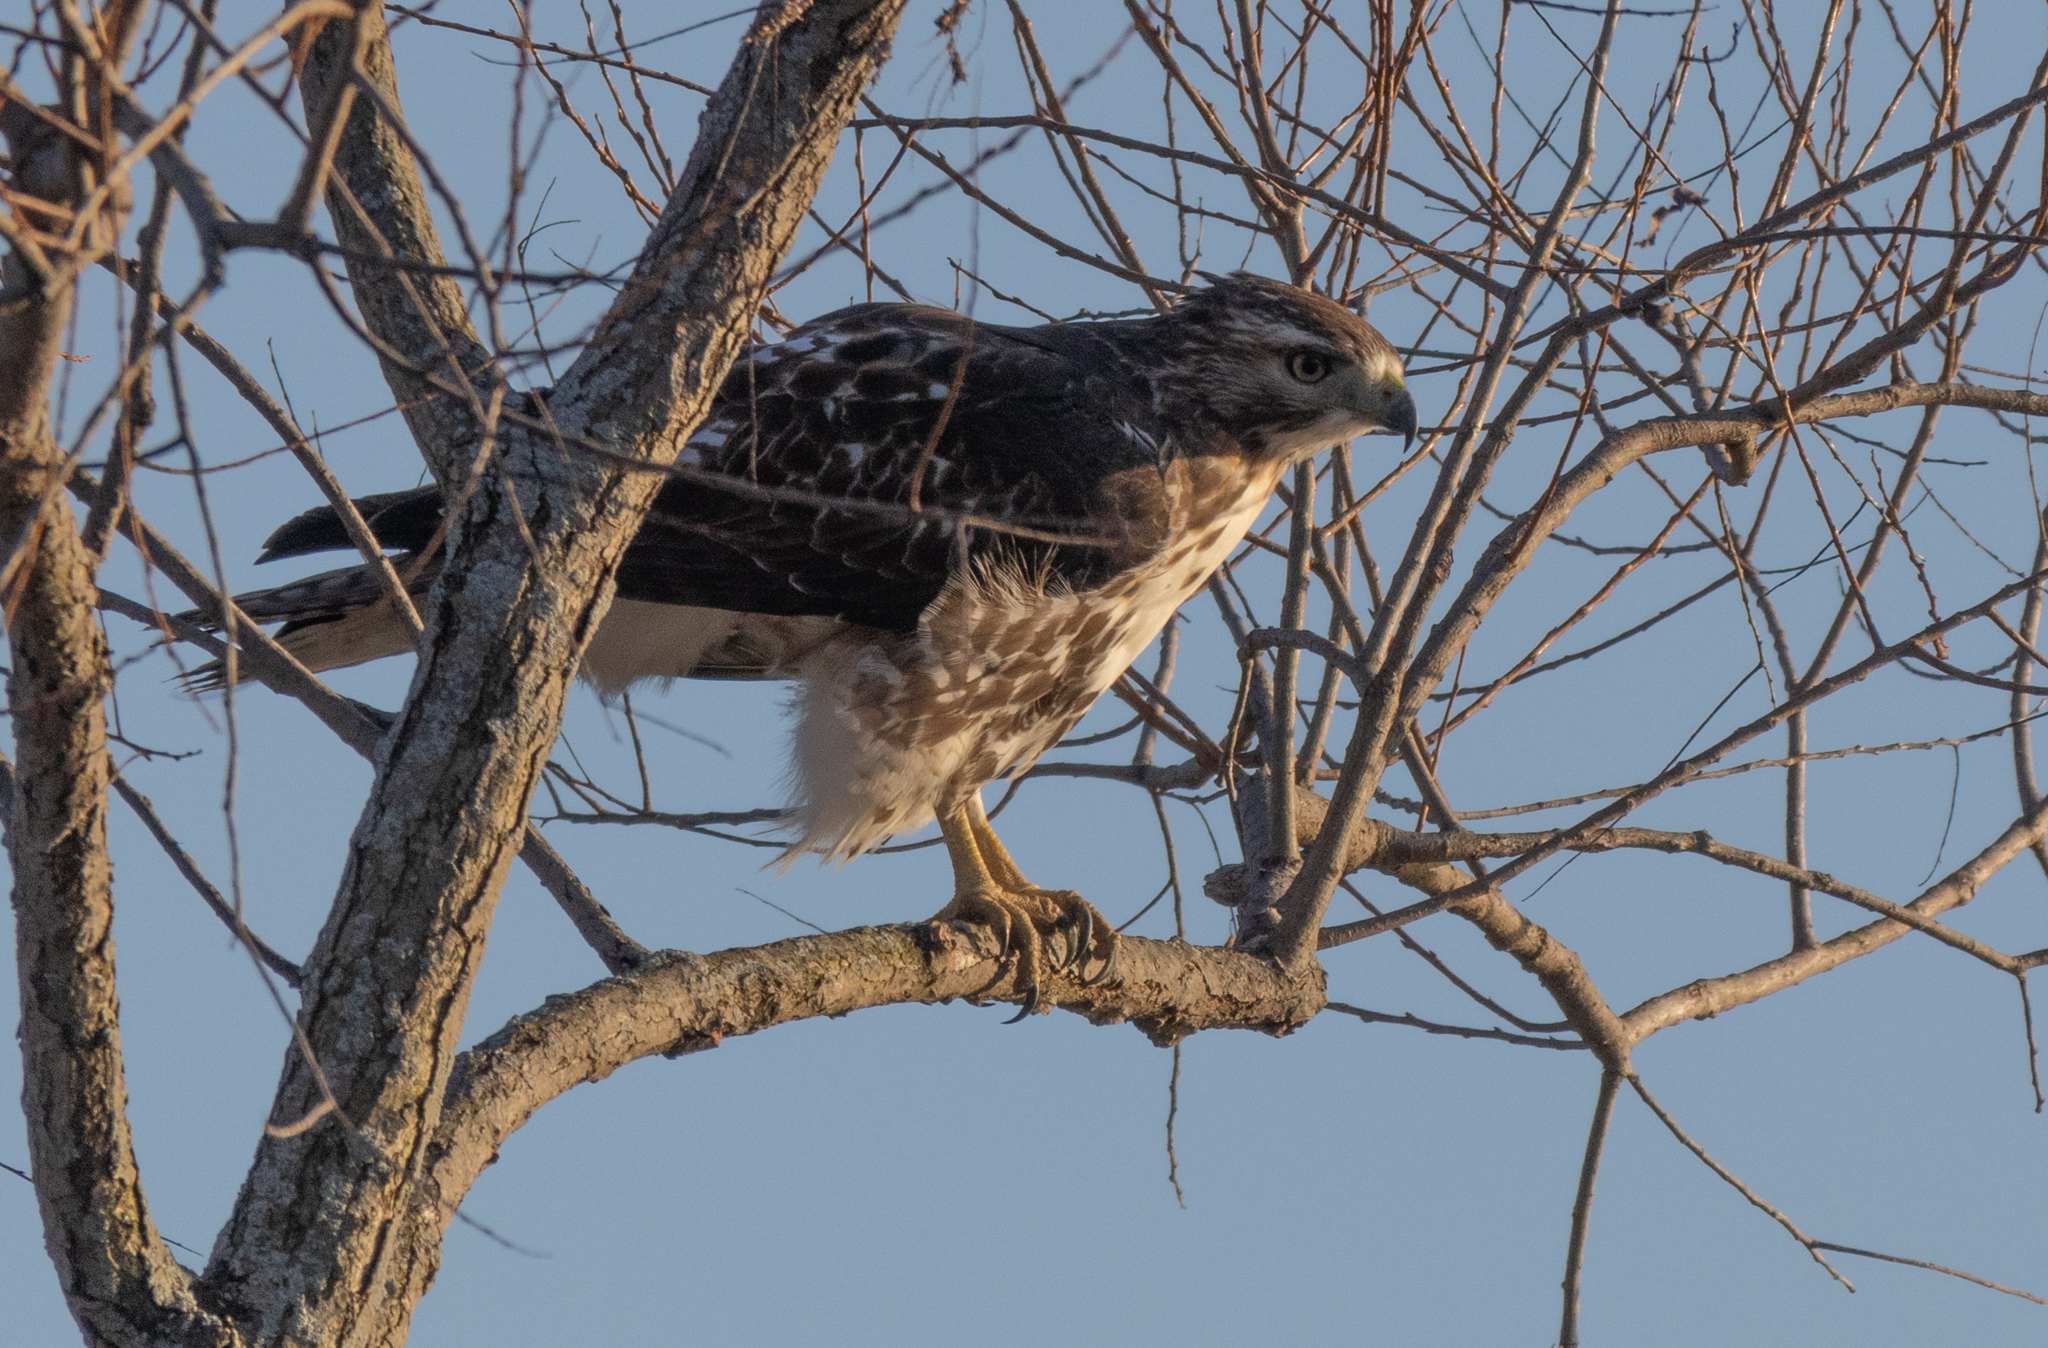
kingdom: Animalia
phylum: Chordata
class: Aves
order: Accipitriformes
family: Accipitridae
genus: Buteo
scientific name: Buteo jamaicensis
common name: Red-tailed hawk
